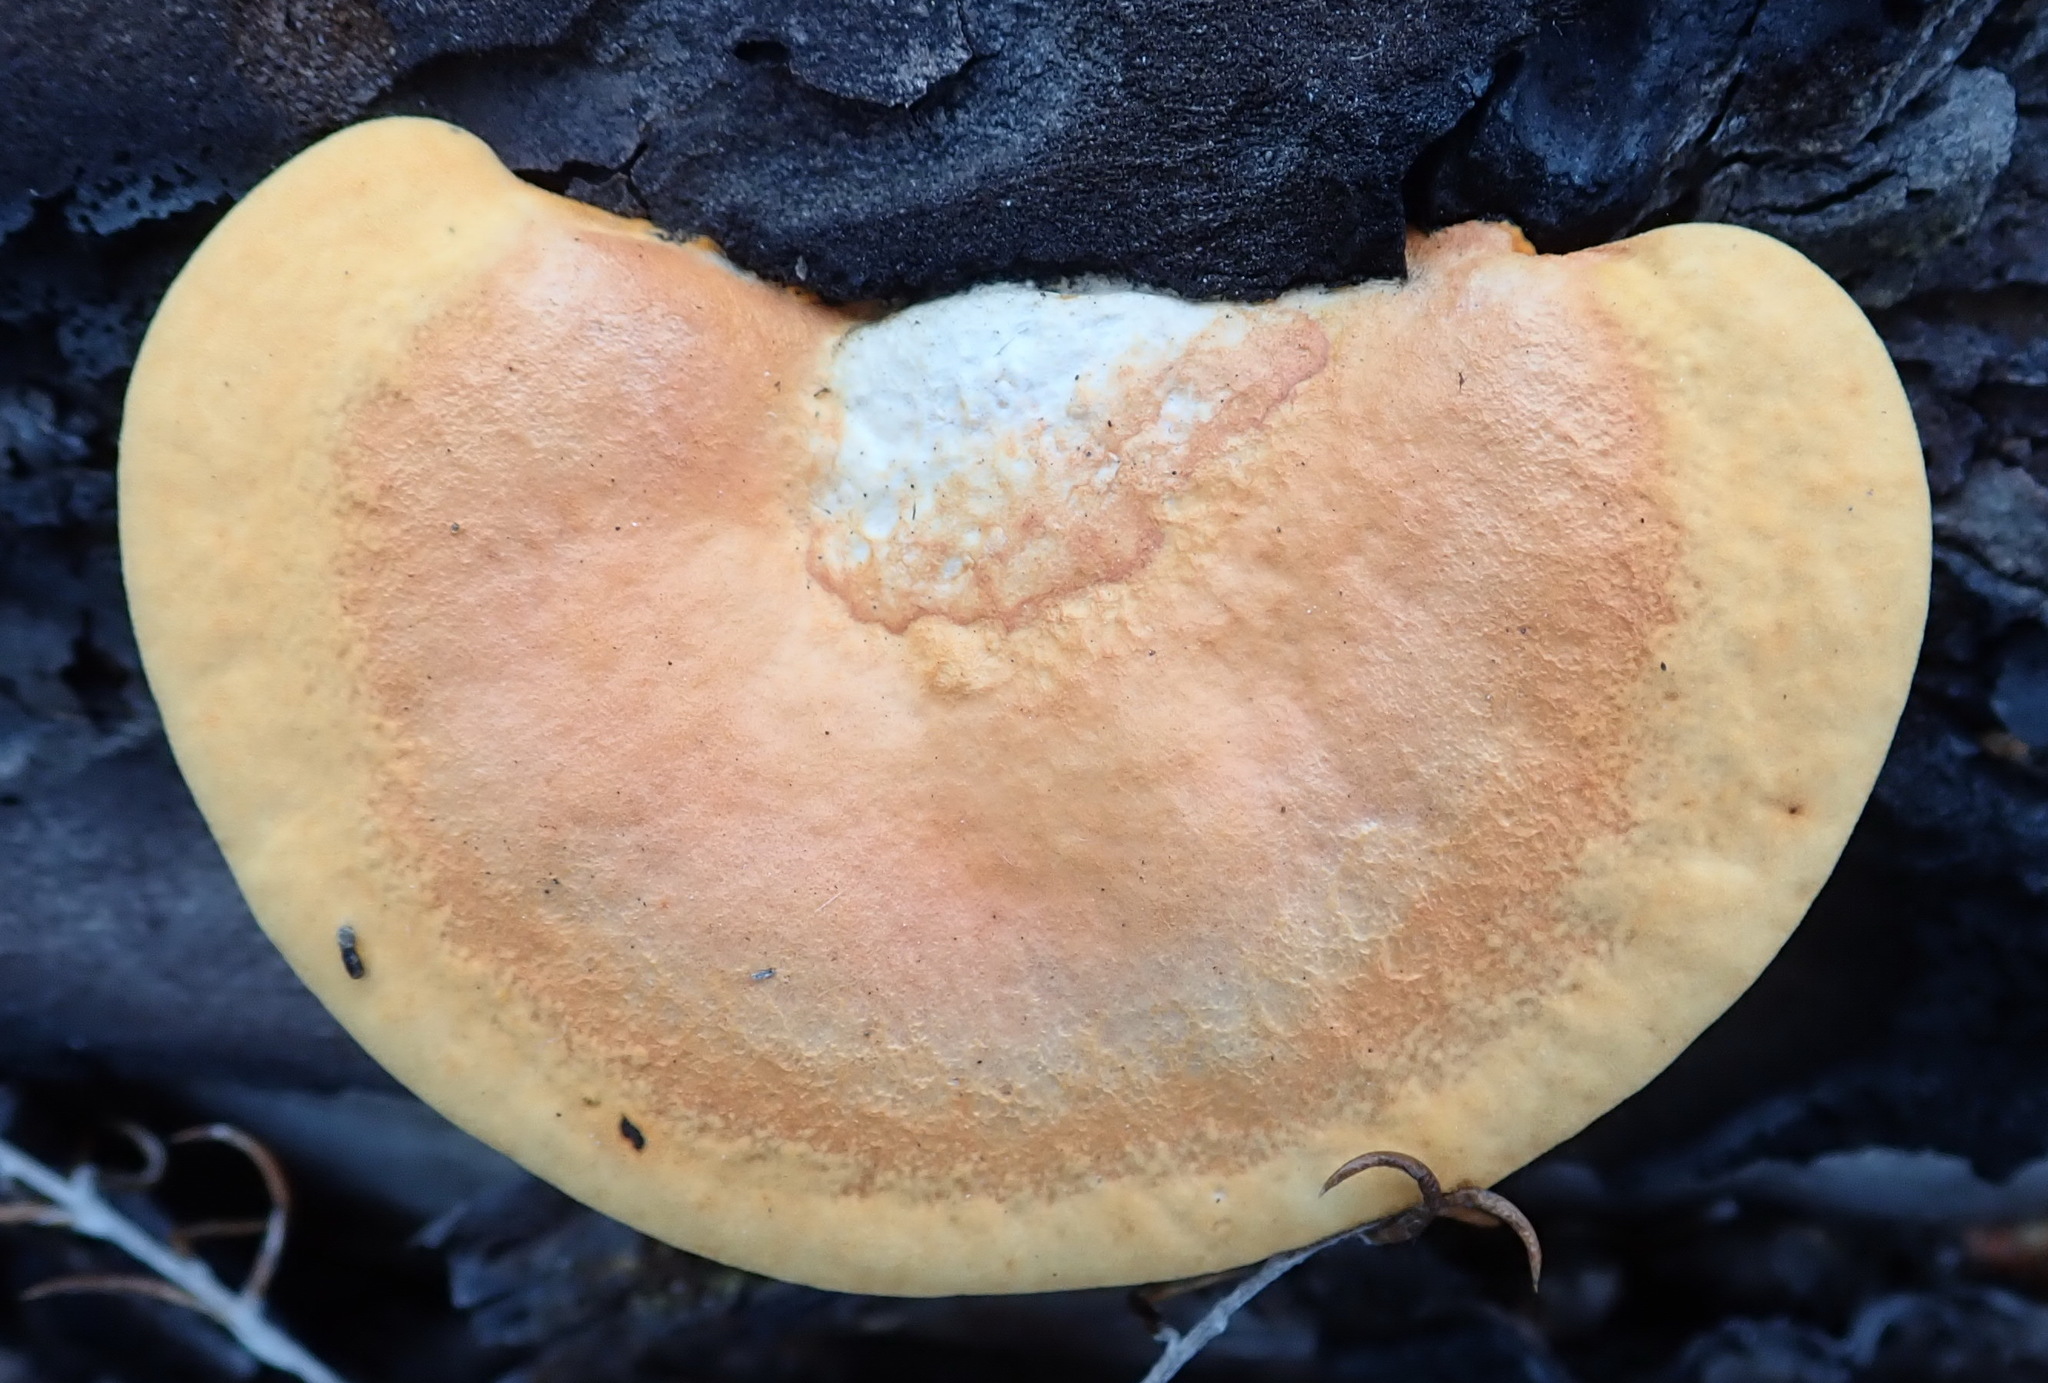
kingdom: Fungi
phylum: Basidiomycota
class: Agaricomycetes
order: Polyporales
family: Polyporaceae
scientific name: Polyporaceae
